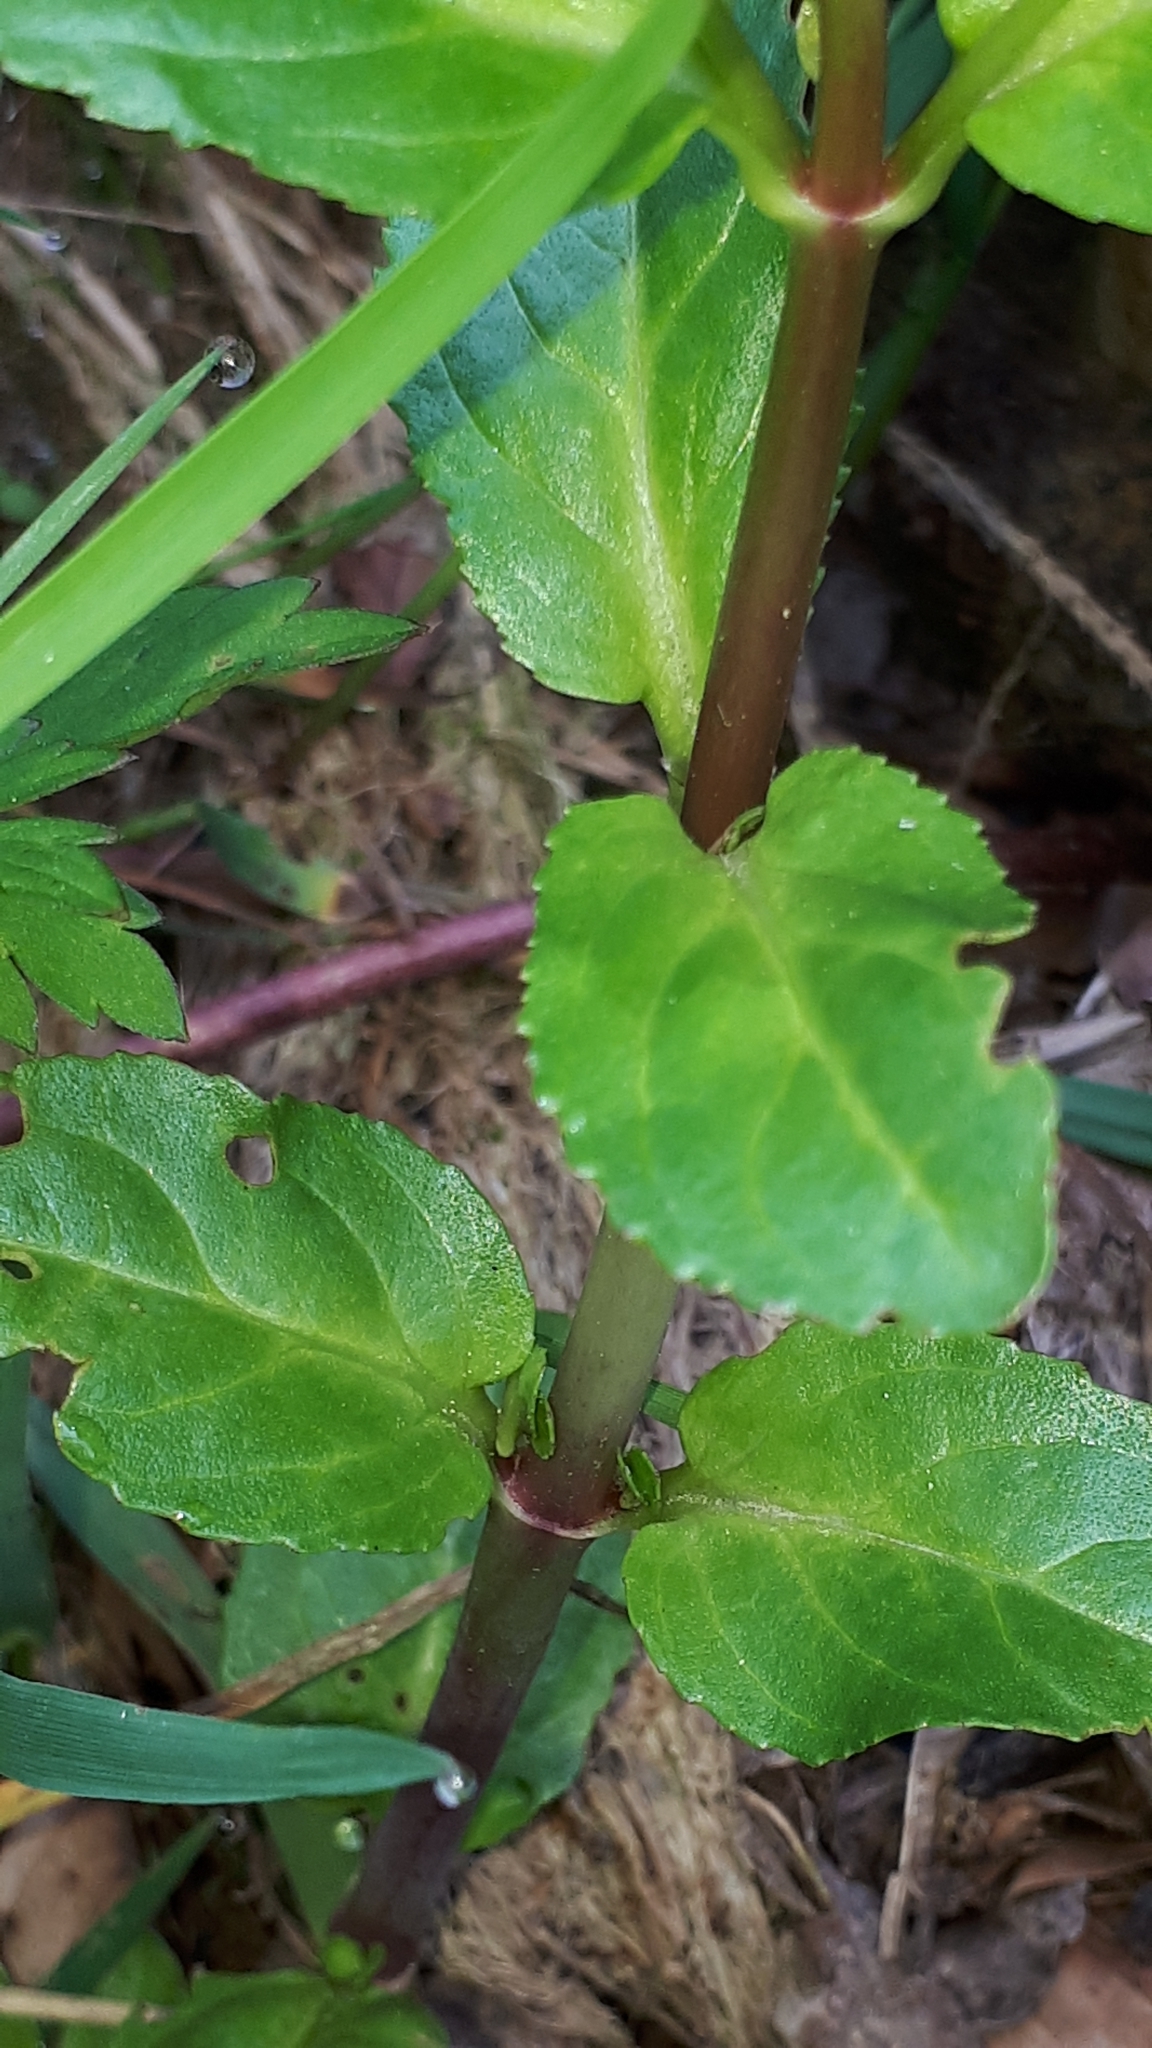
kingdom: Plantae
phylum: Tracheophyta
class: Magnoliopsida
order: Lamiales
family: Plantaginaceae
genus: Veronica
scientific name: Veronica beccabunga
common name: Brooklime
